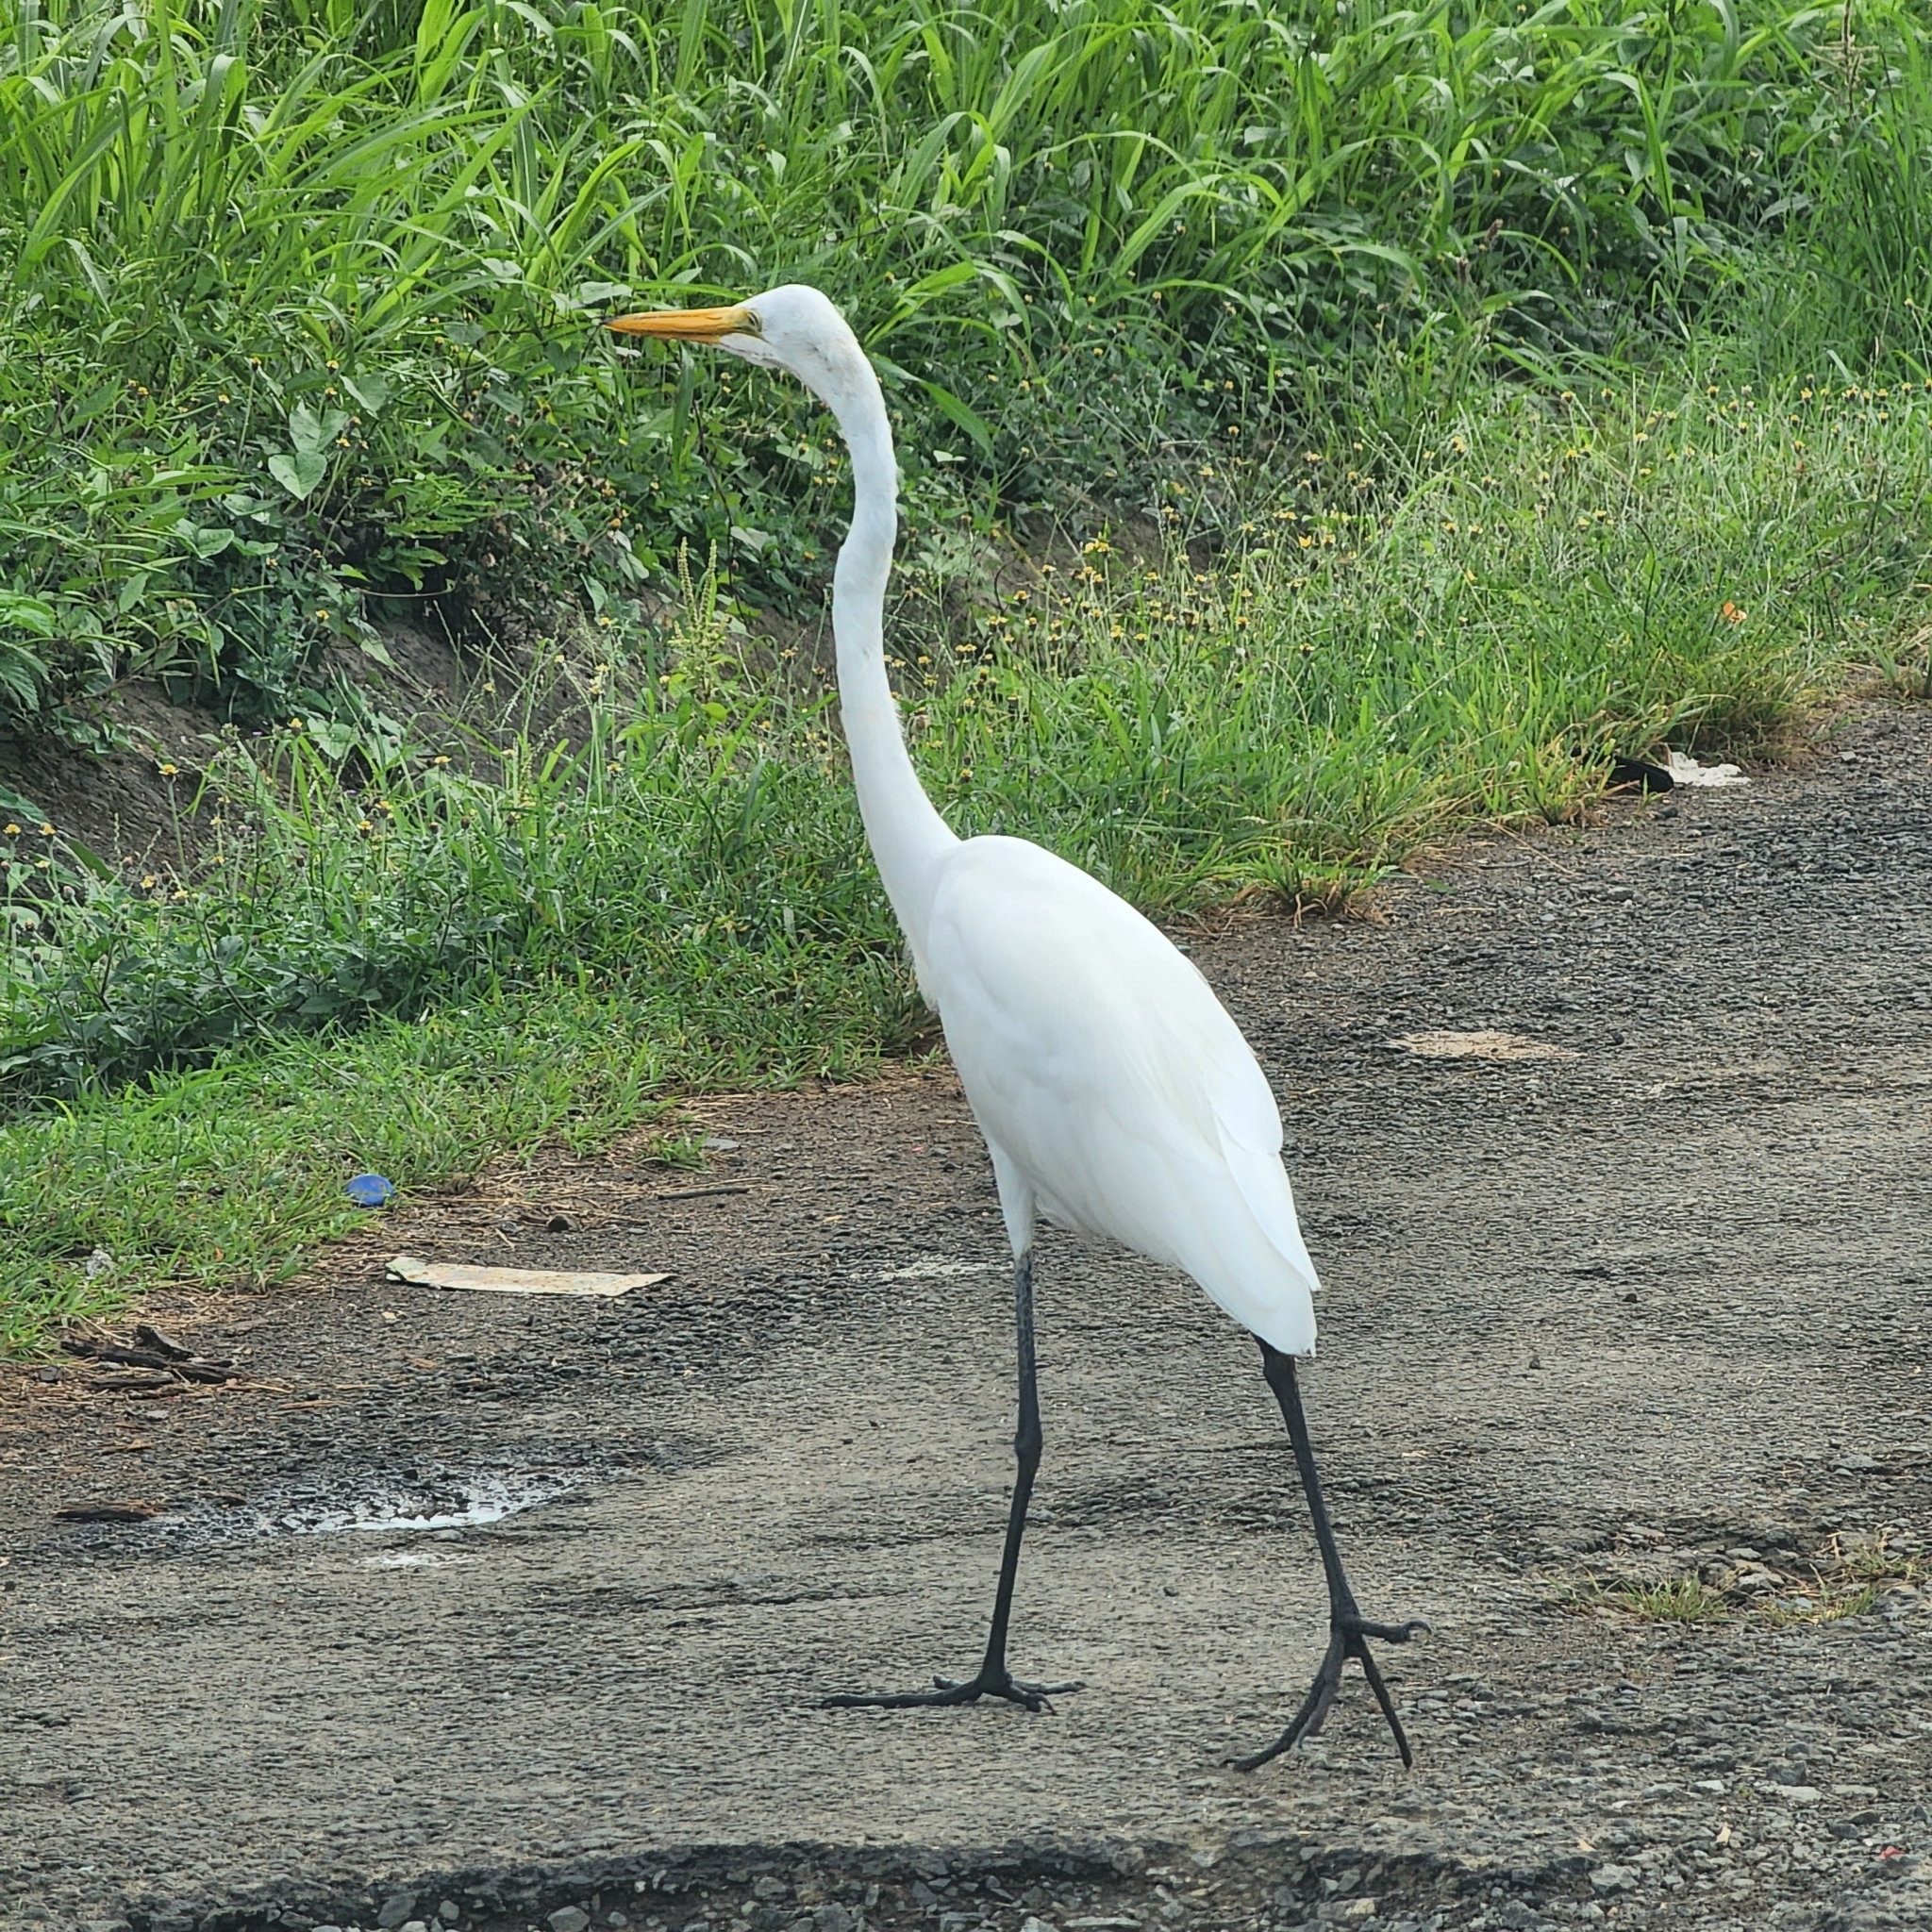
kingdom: Animalia
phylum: Chordata
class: Aves
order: Pelecaniformes
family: Ardeidae
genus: Ardea
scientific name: Ardea alba
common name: Great egret
